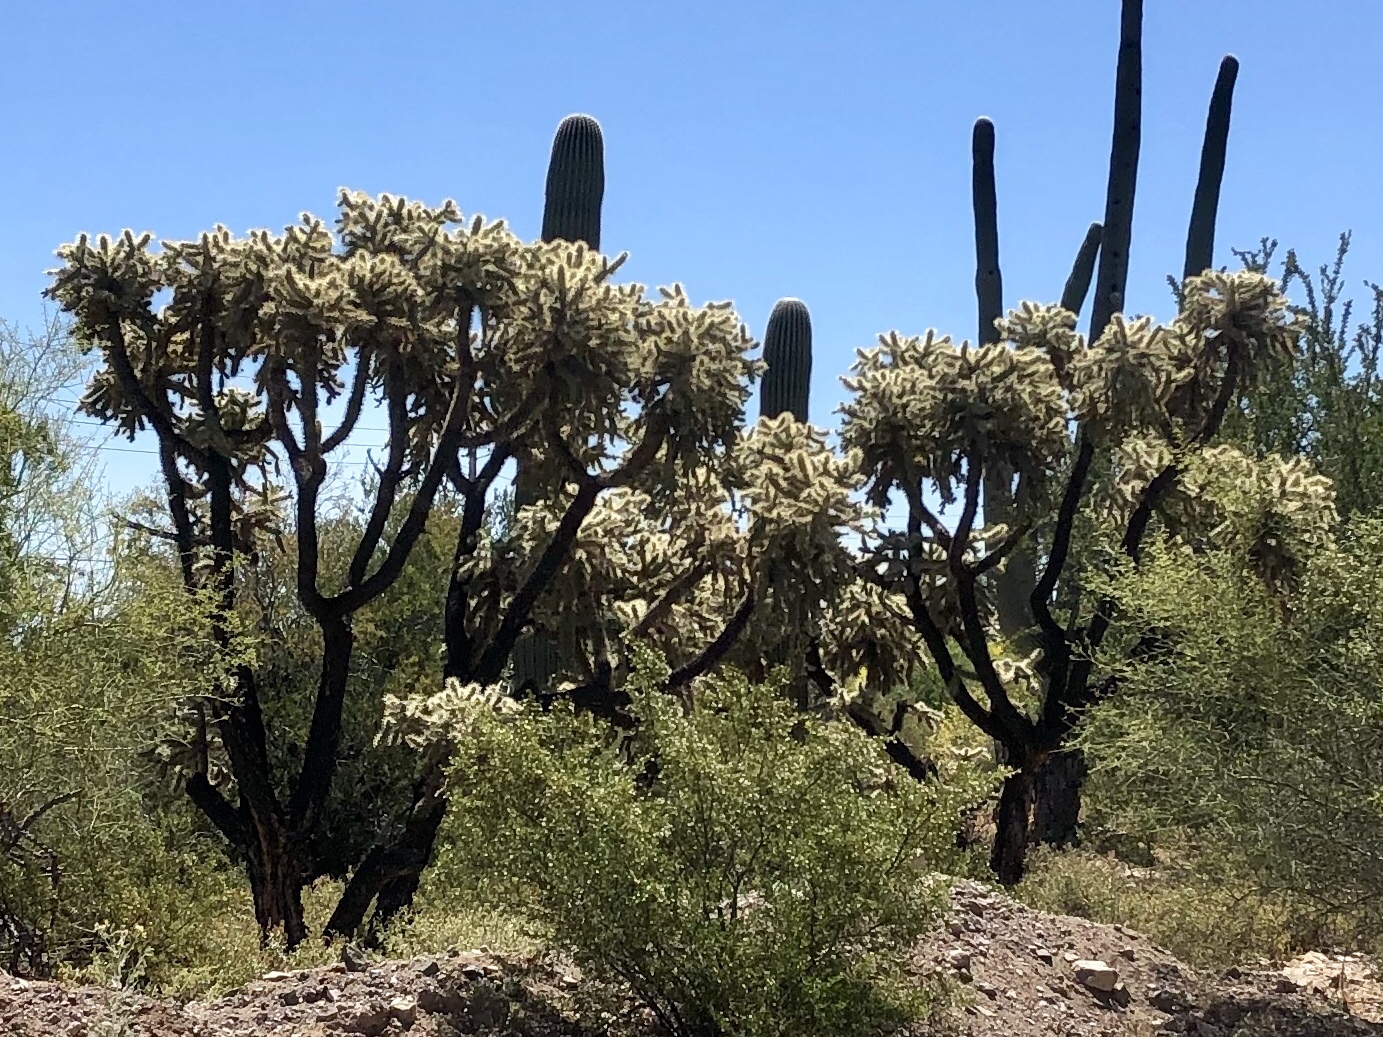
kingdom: Plantae
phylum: Tracheophyta
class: Magnoliopsida
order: Caryophyllales
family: Cactaceae
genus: Cylindropuntia
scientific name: Cylindropuntia fulgida
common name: Jumping cholla
